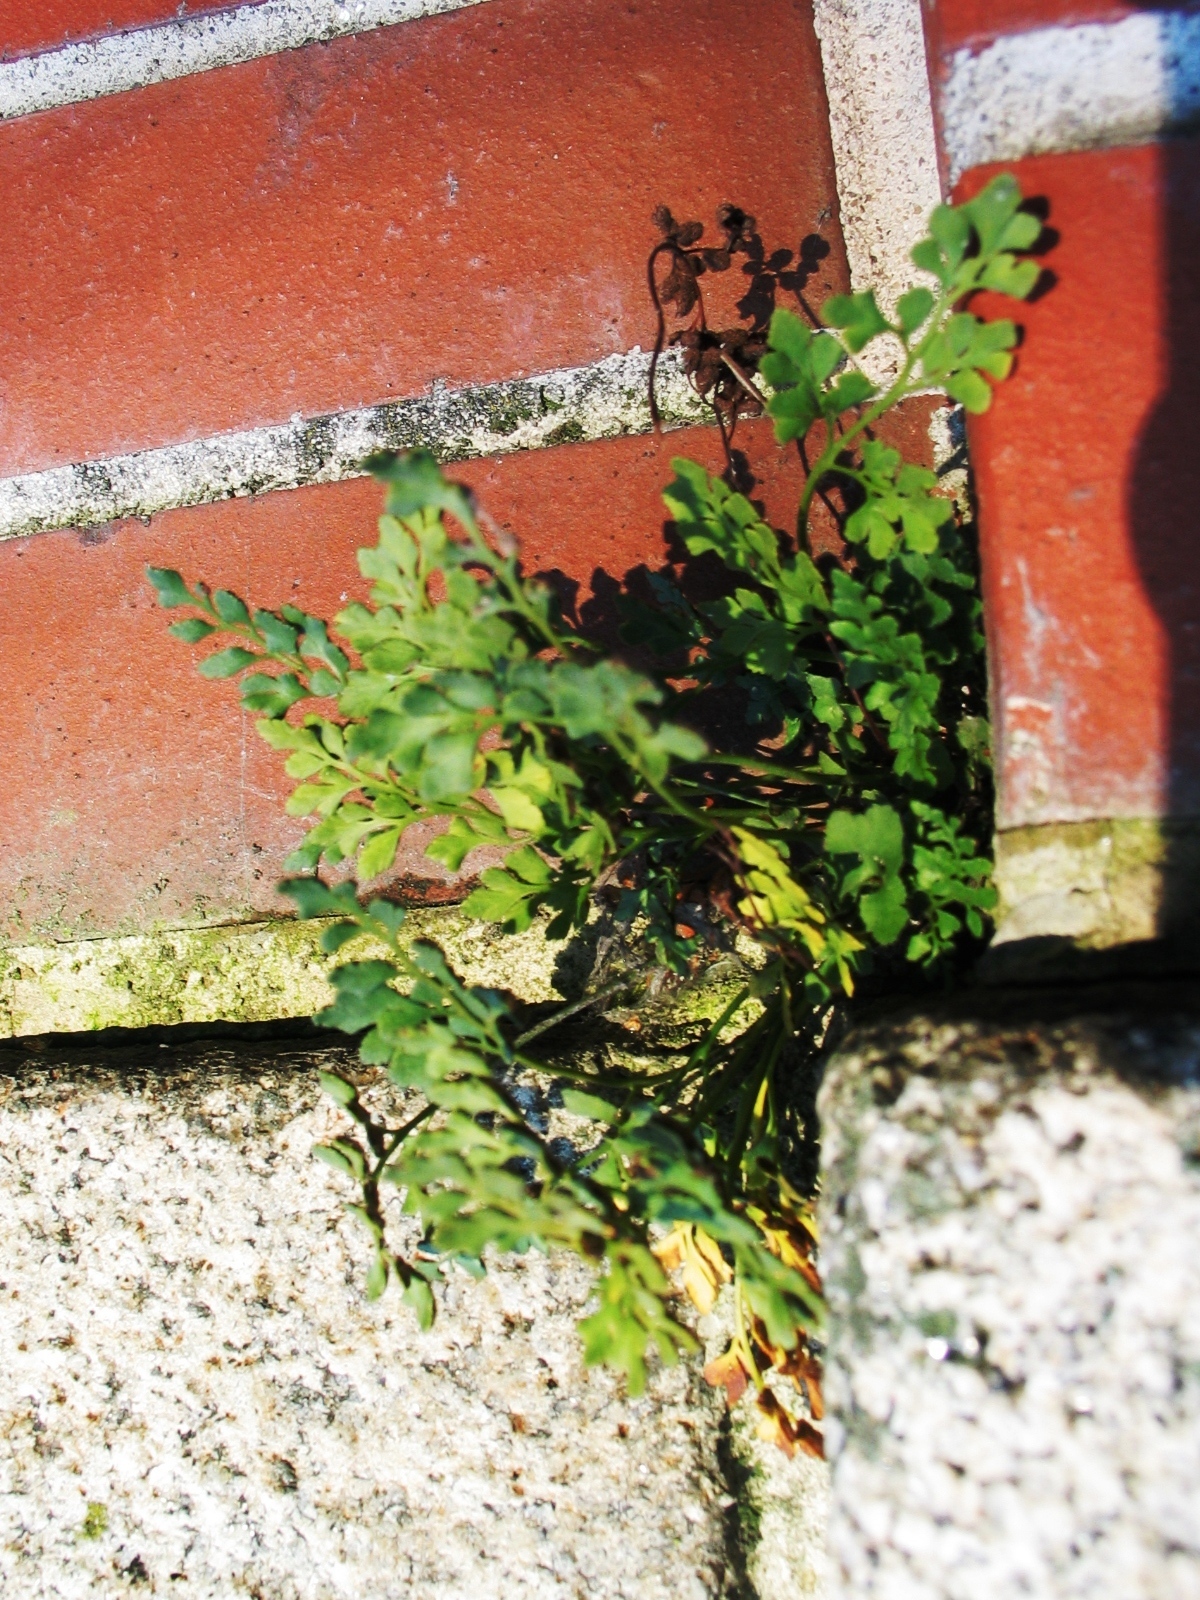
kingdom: Plantae
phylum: Tracheophyta
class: Polypodiopsida
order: Polypodiales
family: Aspleniaceae
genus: Asplenium
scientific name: Asplenium ruta-muraria
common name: Wall-rue
